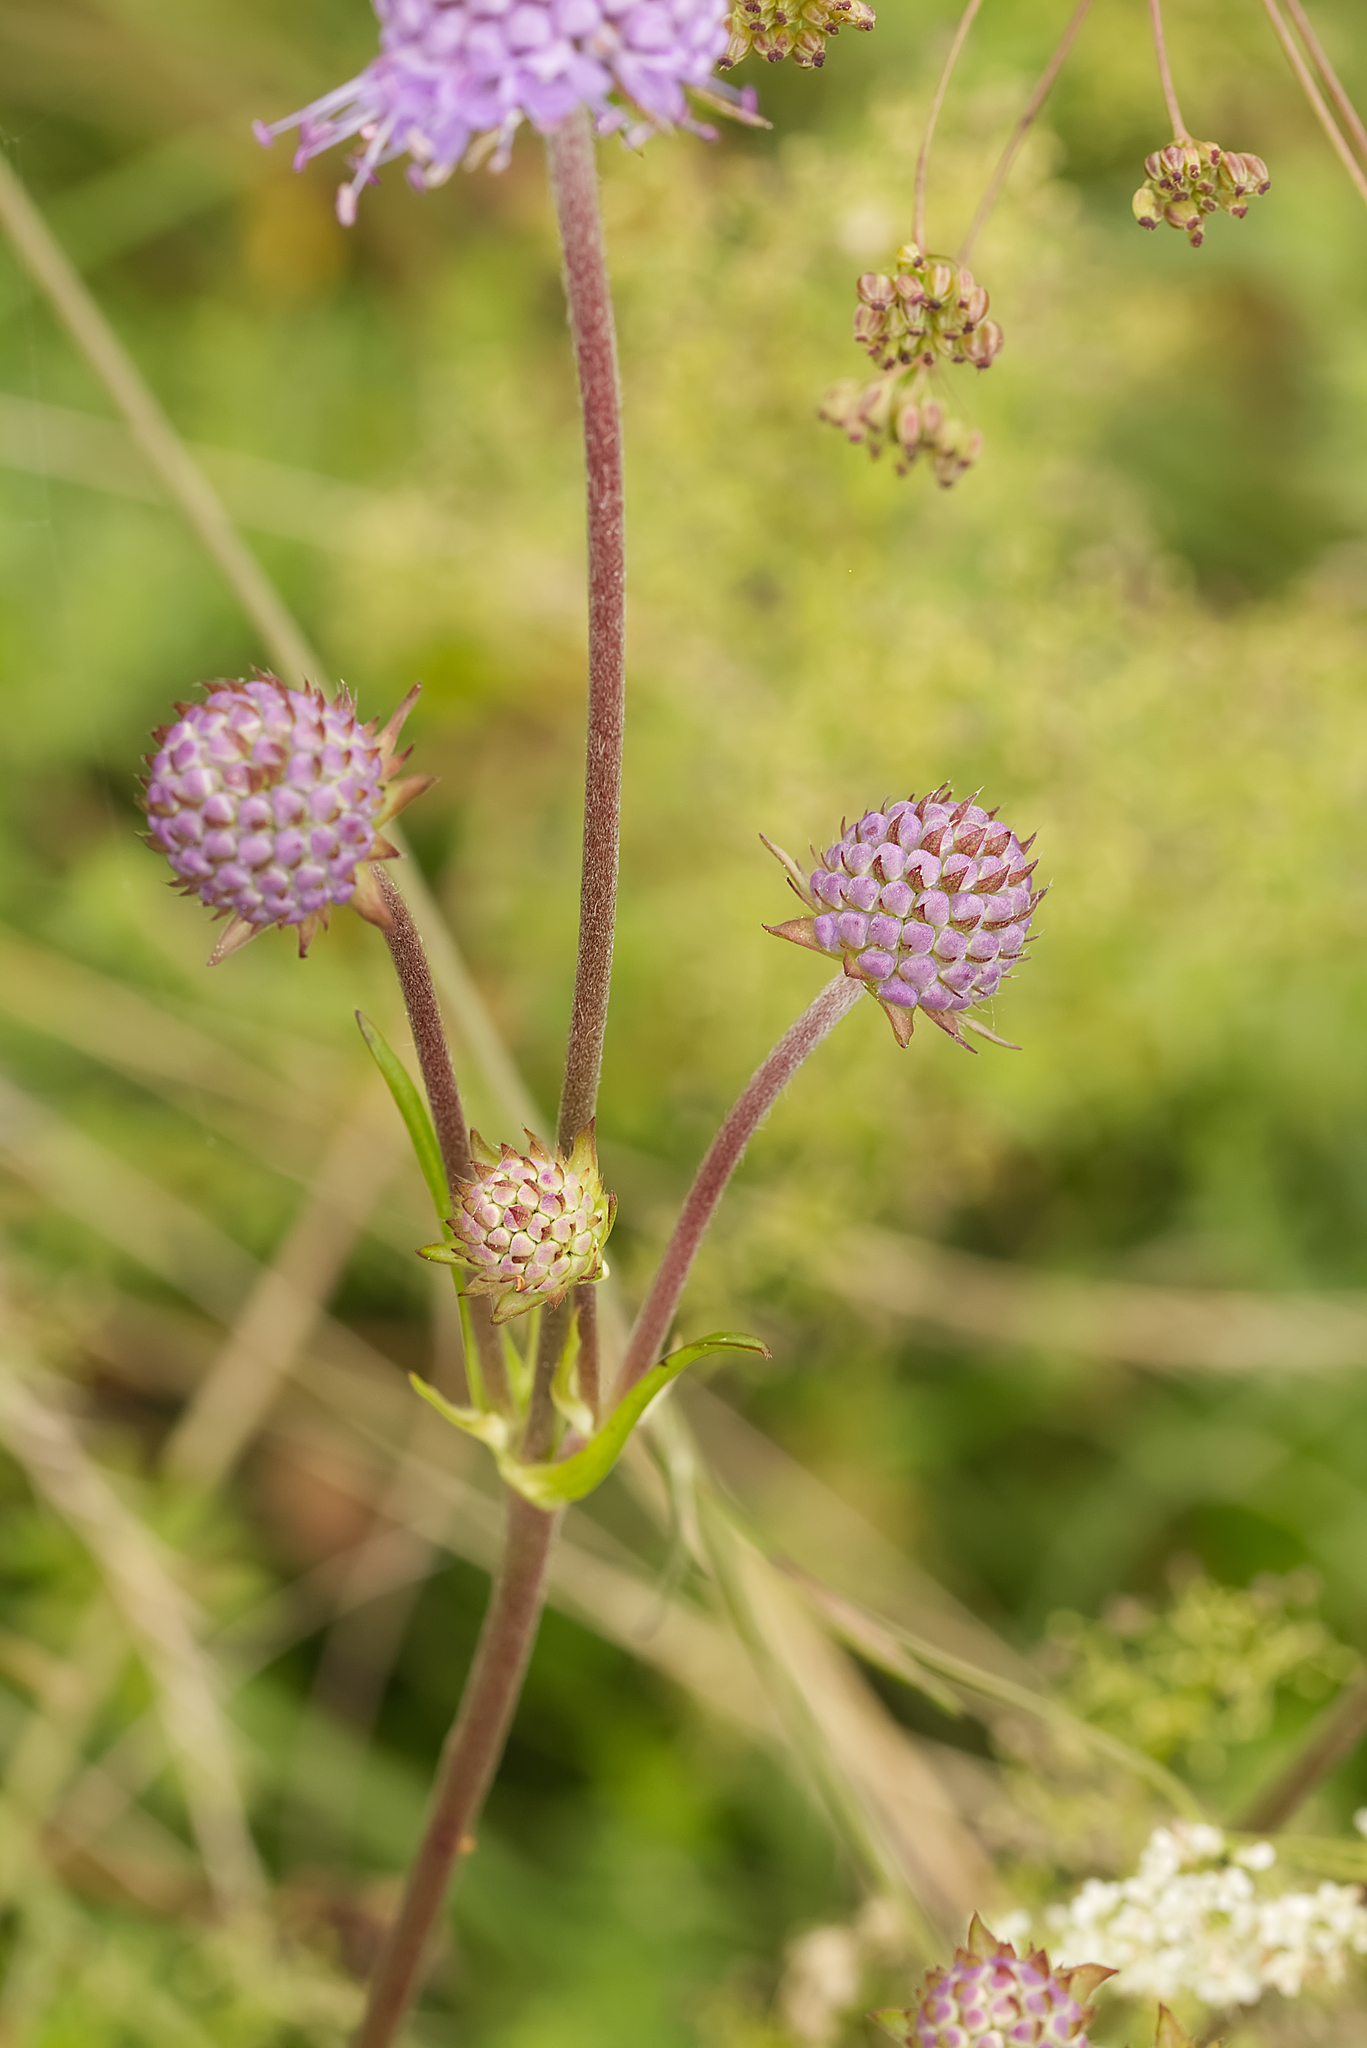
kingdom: Plantae
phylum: Tracheophyta
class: Magnoliopsida
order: Dipsacales
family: Caprifoliaceae
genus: Succisa
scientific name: Succisa pratensis
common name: Devil's-bit
